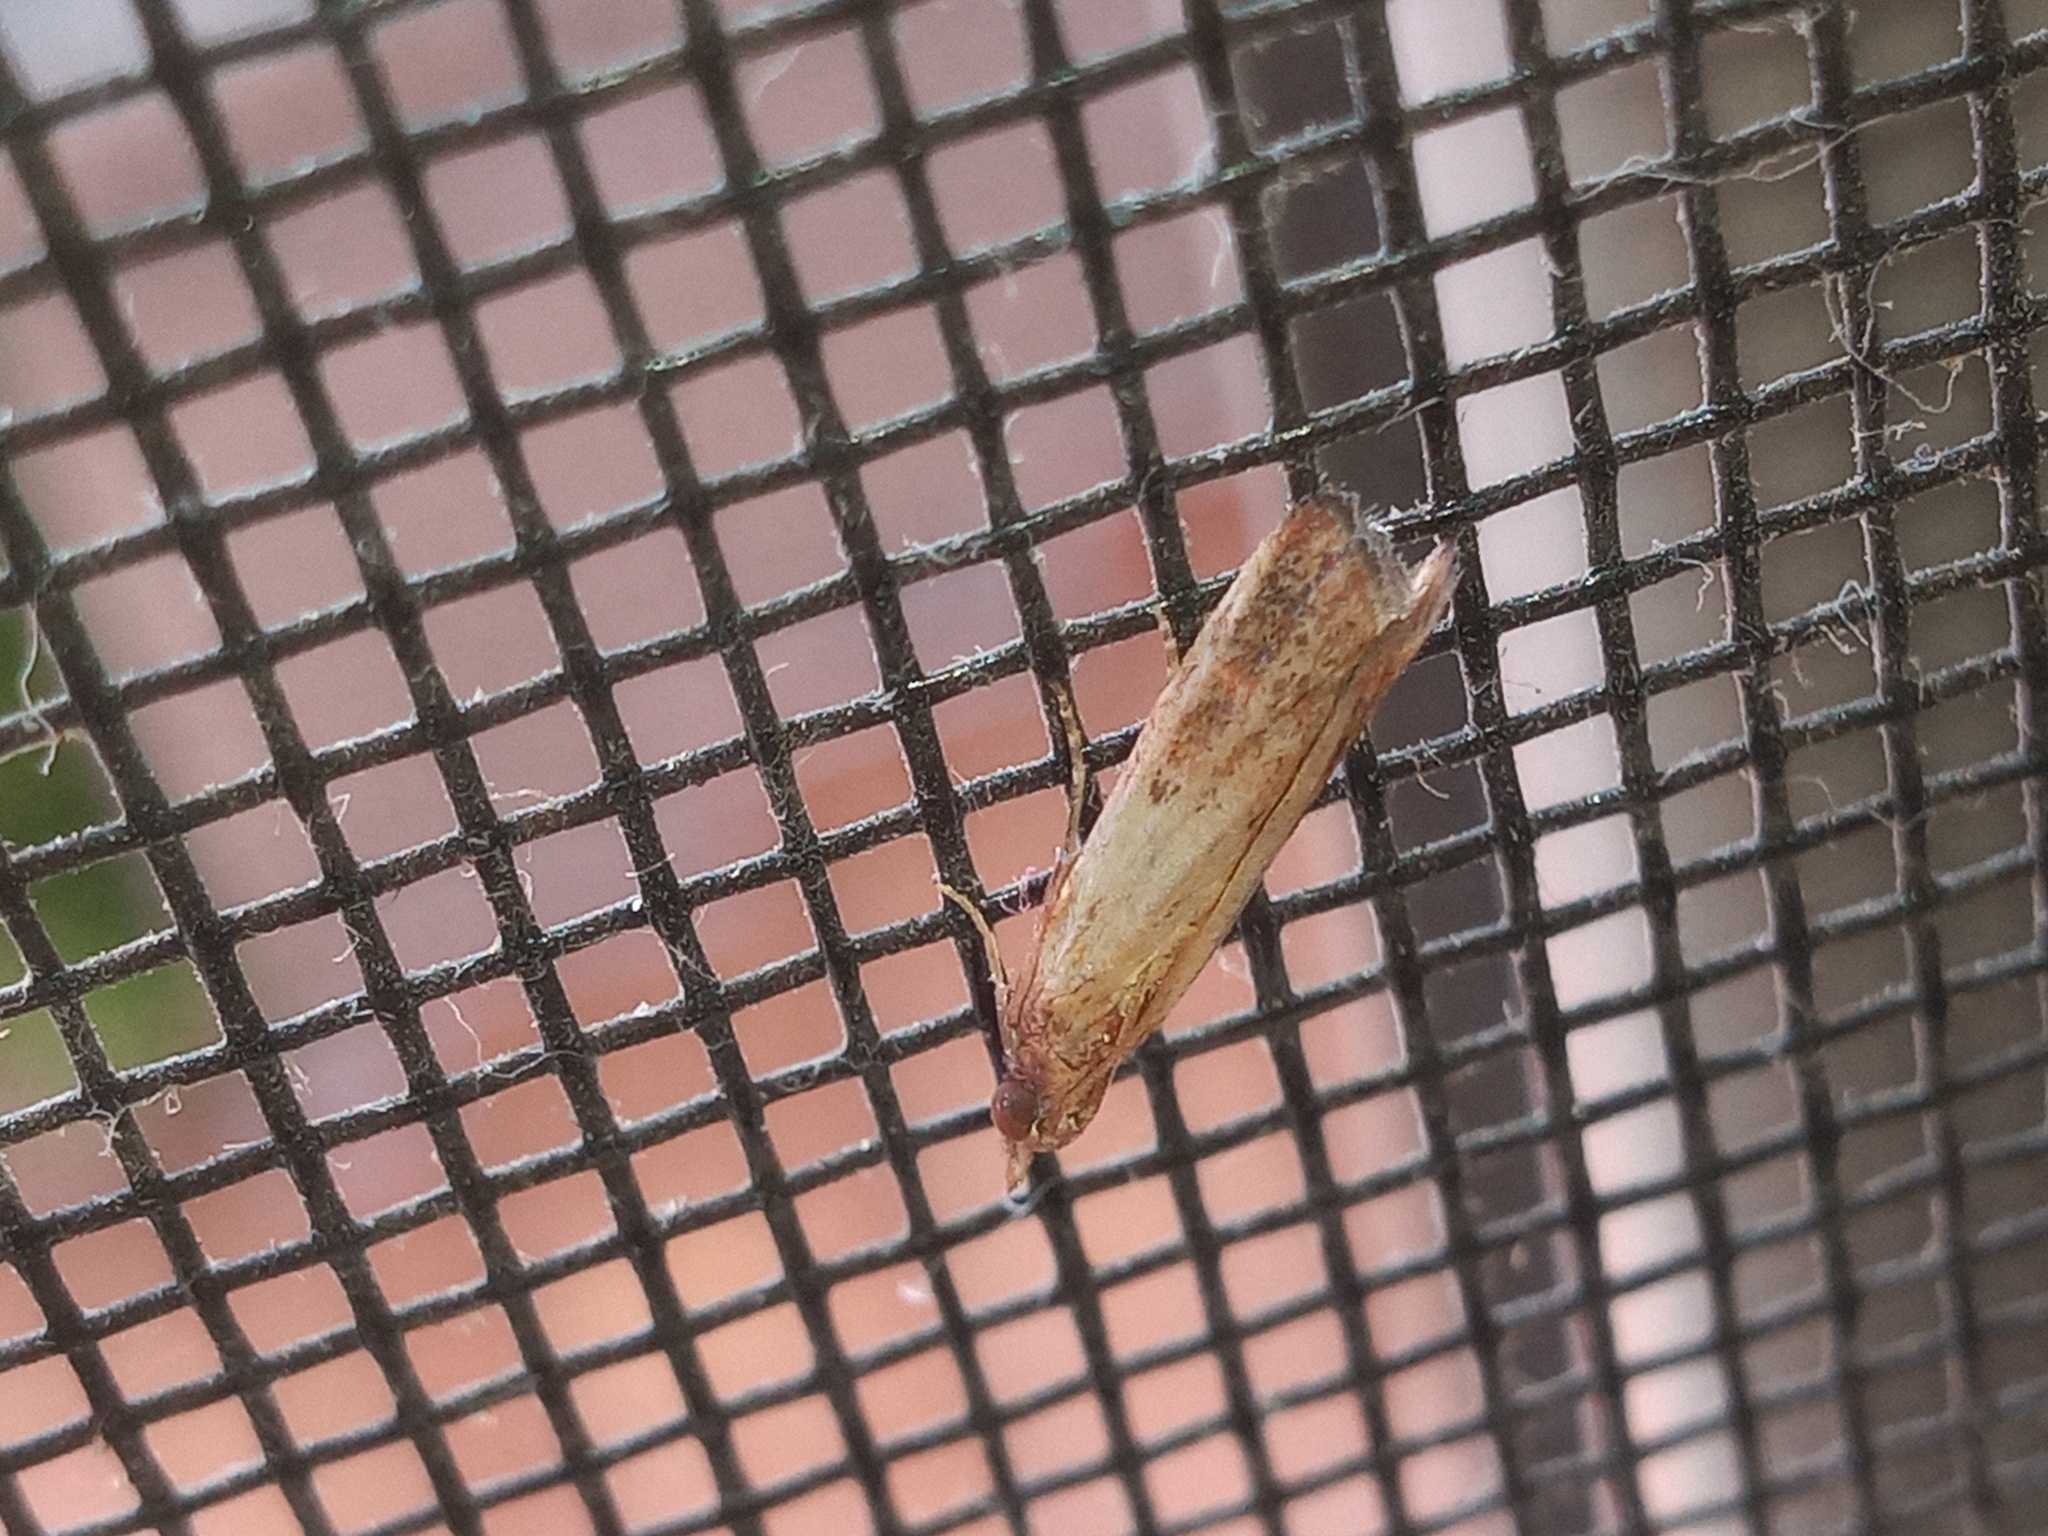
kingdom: Animalia
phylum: Arthropoda
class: Insecta
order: Lepidoptera
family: Pyralidae
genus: Plodia
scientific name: Plodia interpunctella
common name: Indian meal moth
